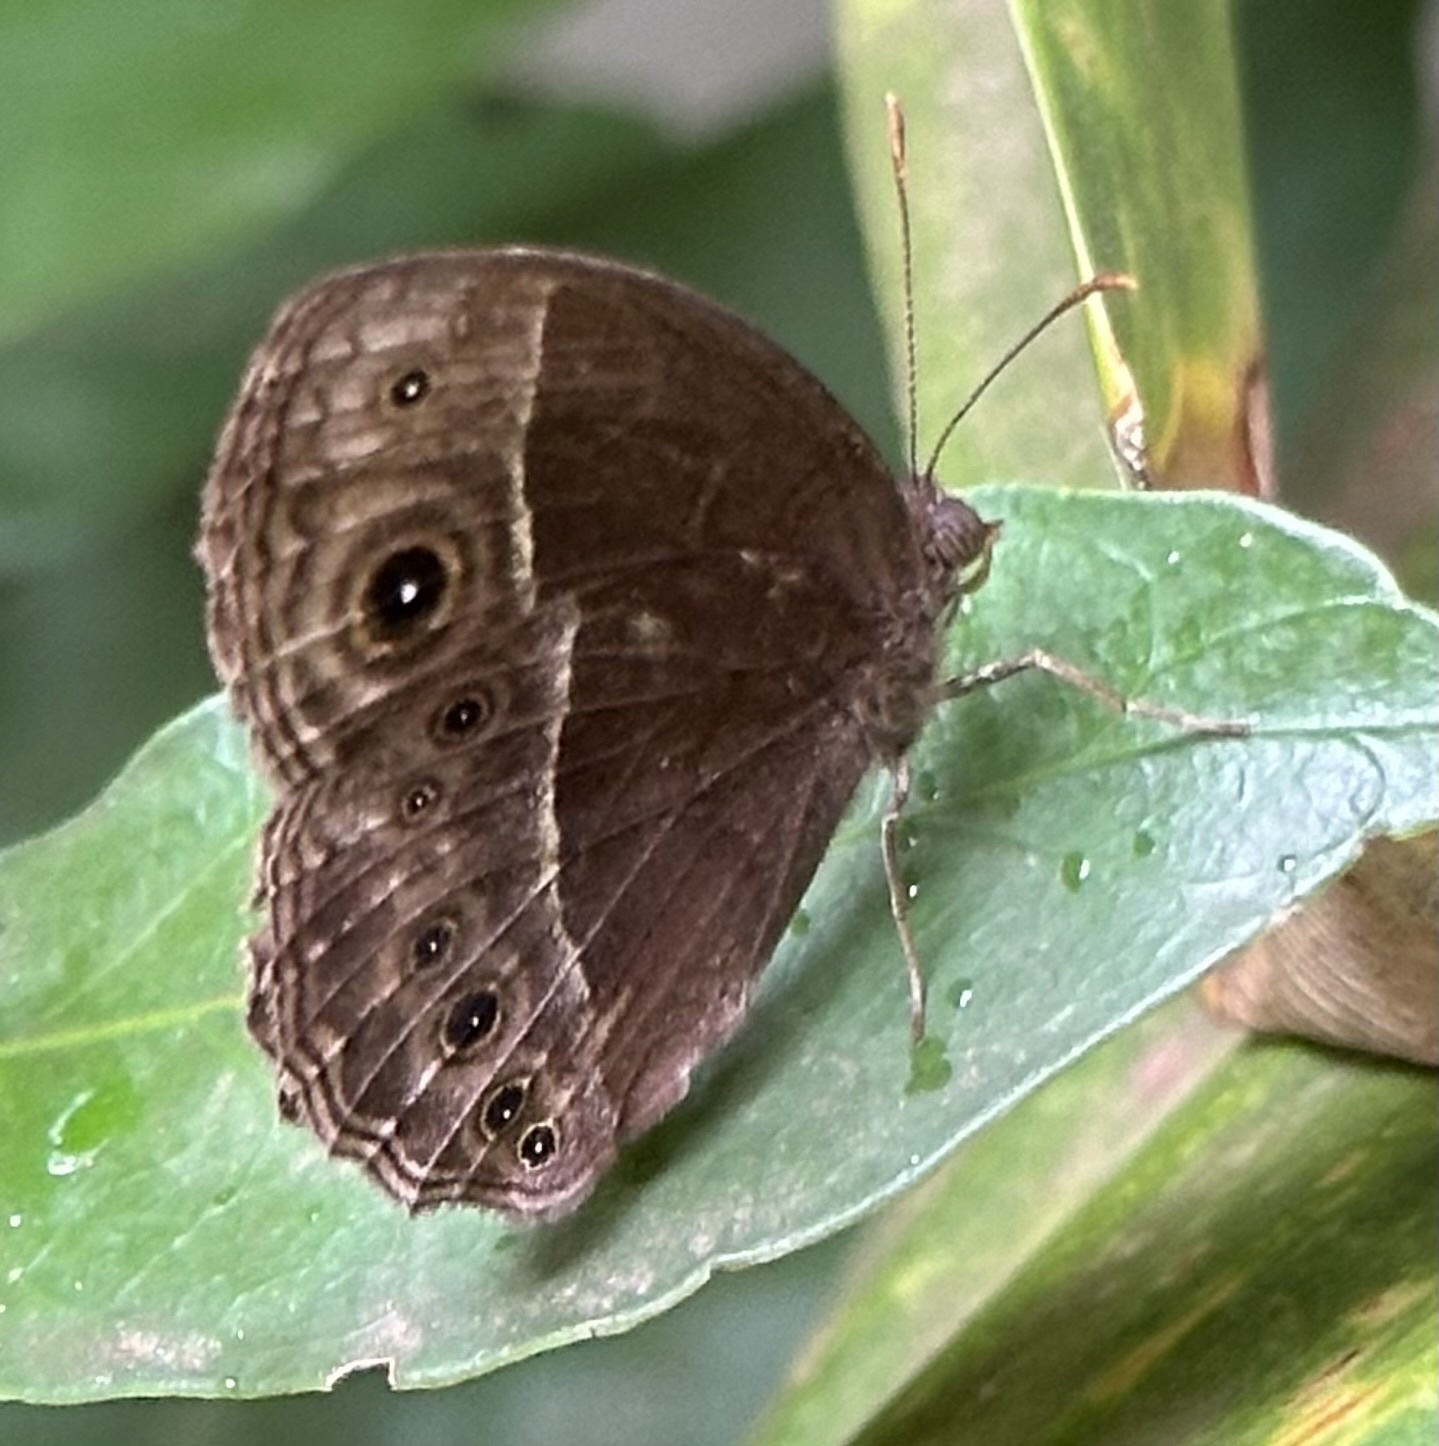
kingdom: Animalia
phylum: Arthropoda
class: Insecta
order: Lepidoptera
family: Nymphalidae
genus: Mycalesis
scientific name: Mycalesis rhacotis
